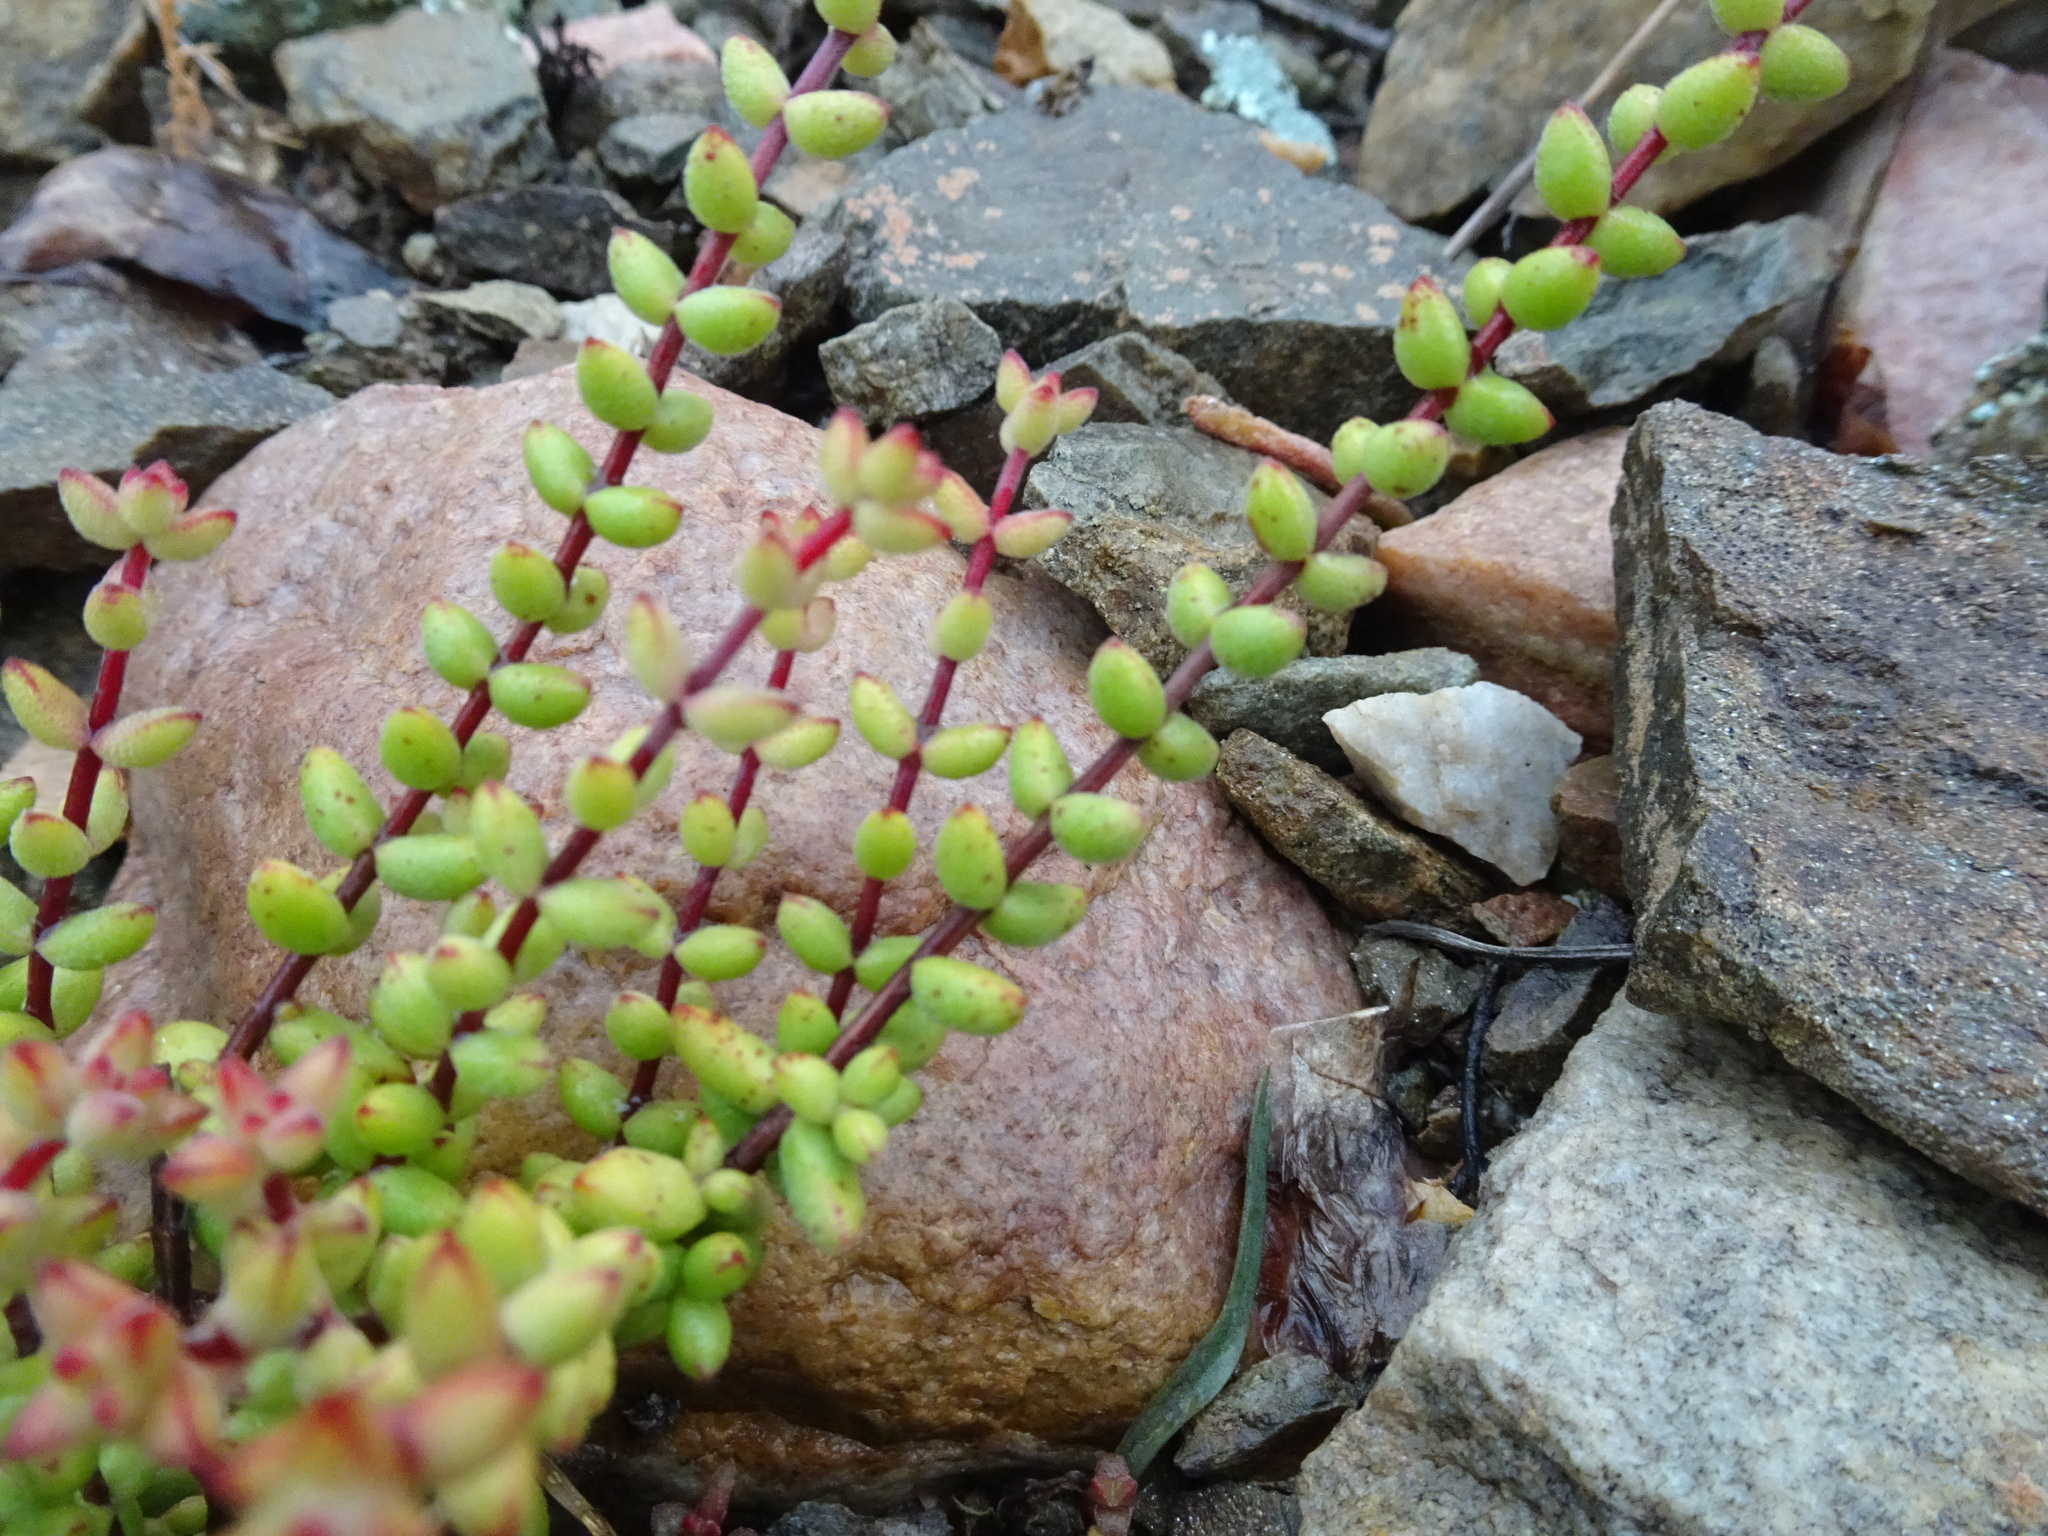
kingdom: Plantae
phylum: Tracheophyta
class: Magnoliopsida
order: Saxifragales
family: Crassulaceae
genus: Crassula
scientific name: Crassula subaphylla
